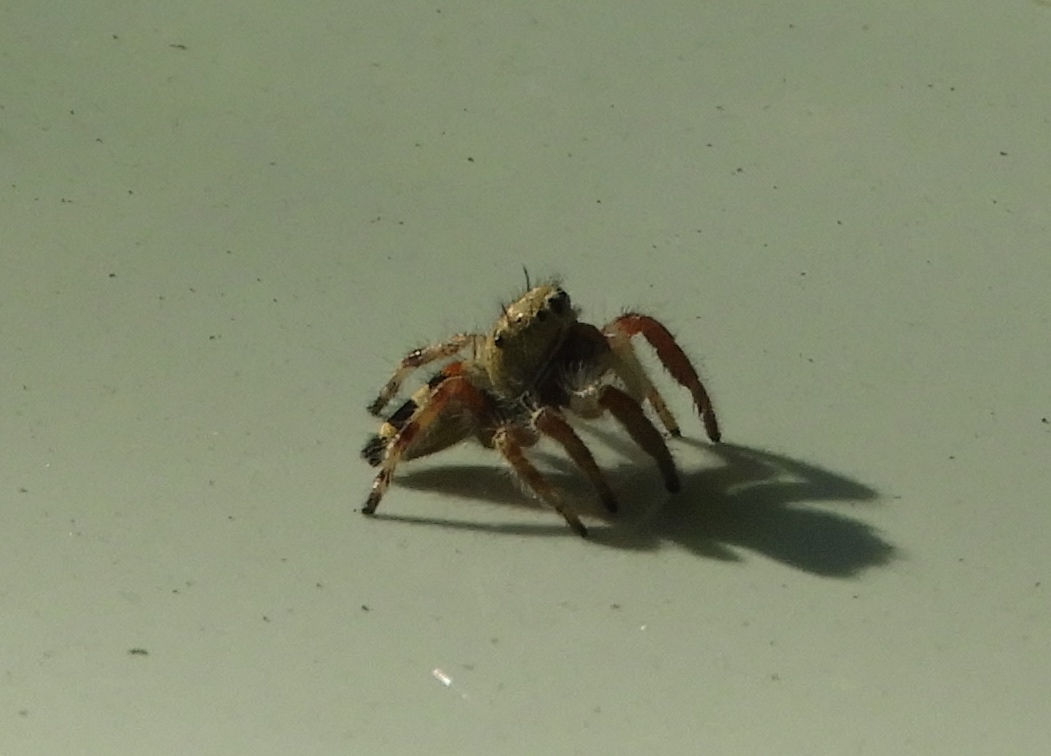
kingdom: Animalia
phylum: Arthropoda
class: Arachnida
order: Araneae
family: Salticidae
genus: Phidippus
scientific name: Phidippus pacosauritus
